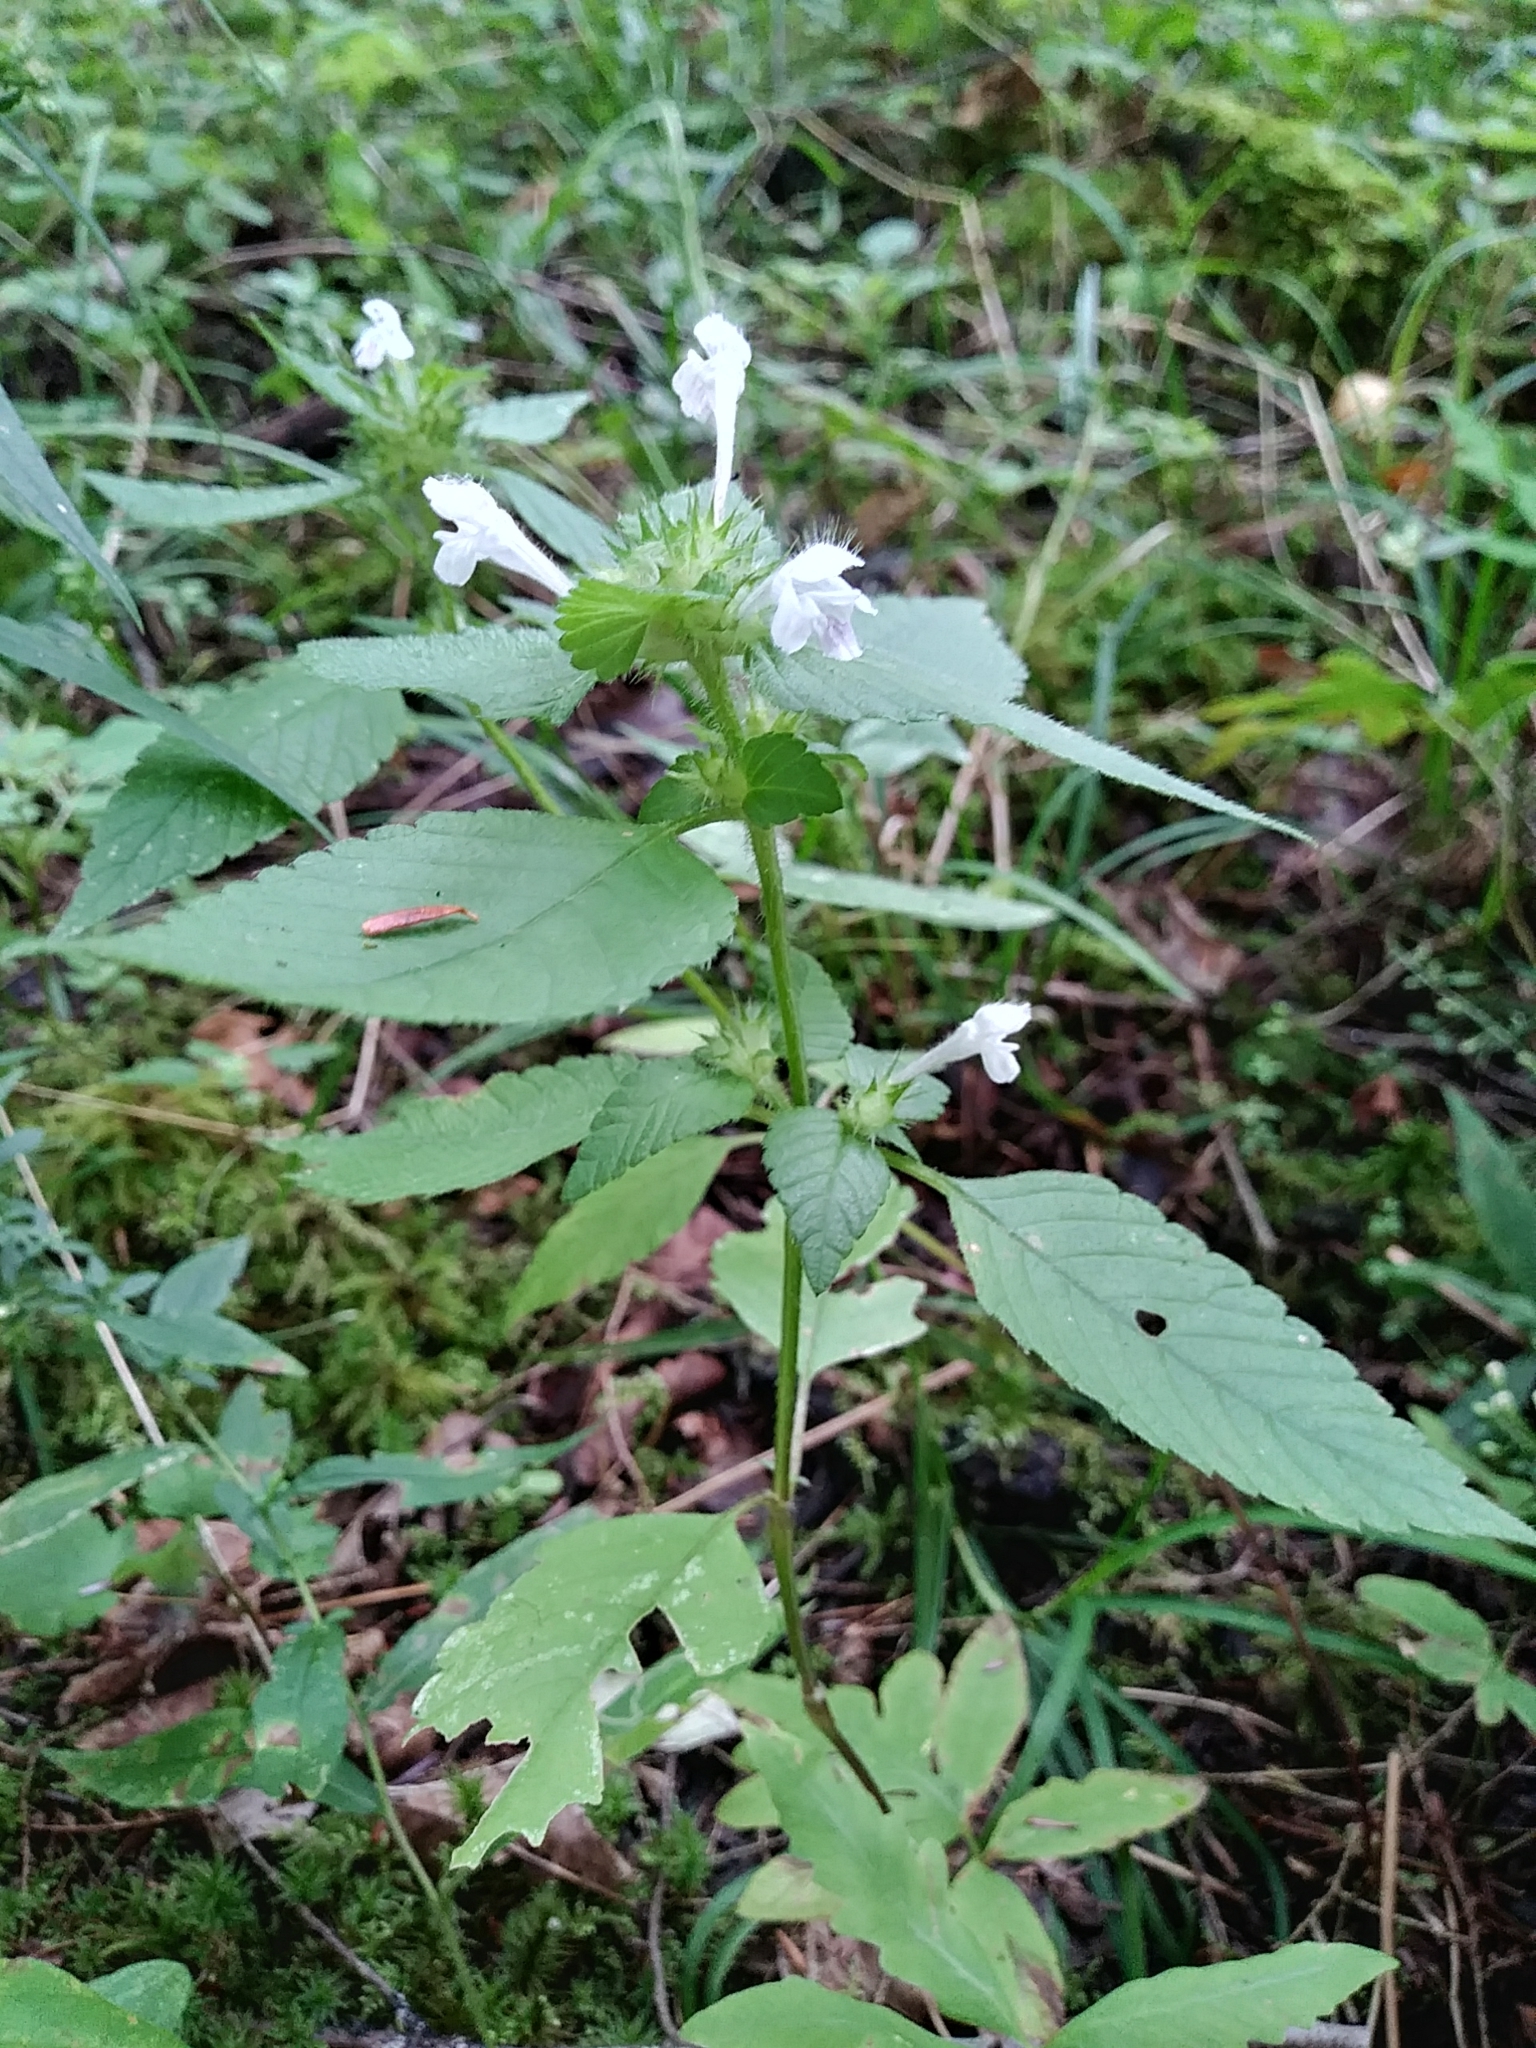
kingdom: Plantae
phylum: Tracheophyta
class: Magnoliopsida
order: Lamiales
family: Lamiaceae
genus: Galeopsis
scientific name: Galeopsis tetrahit
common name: Common hemp-nettle
